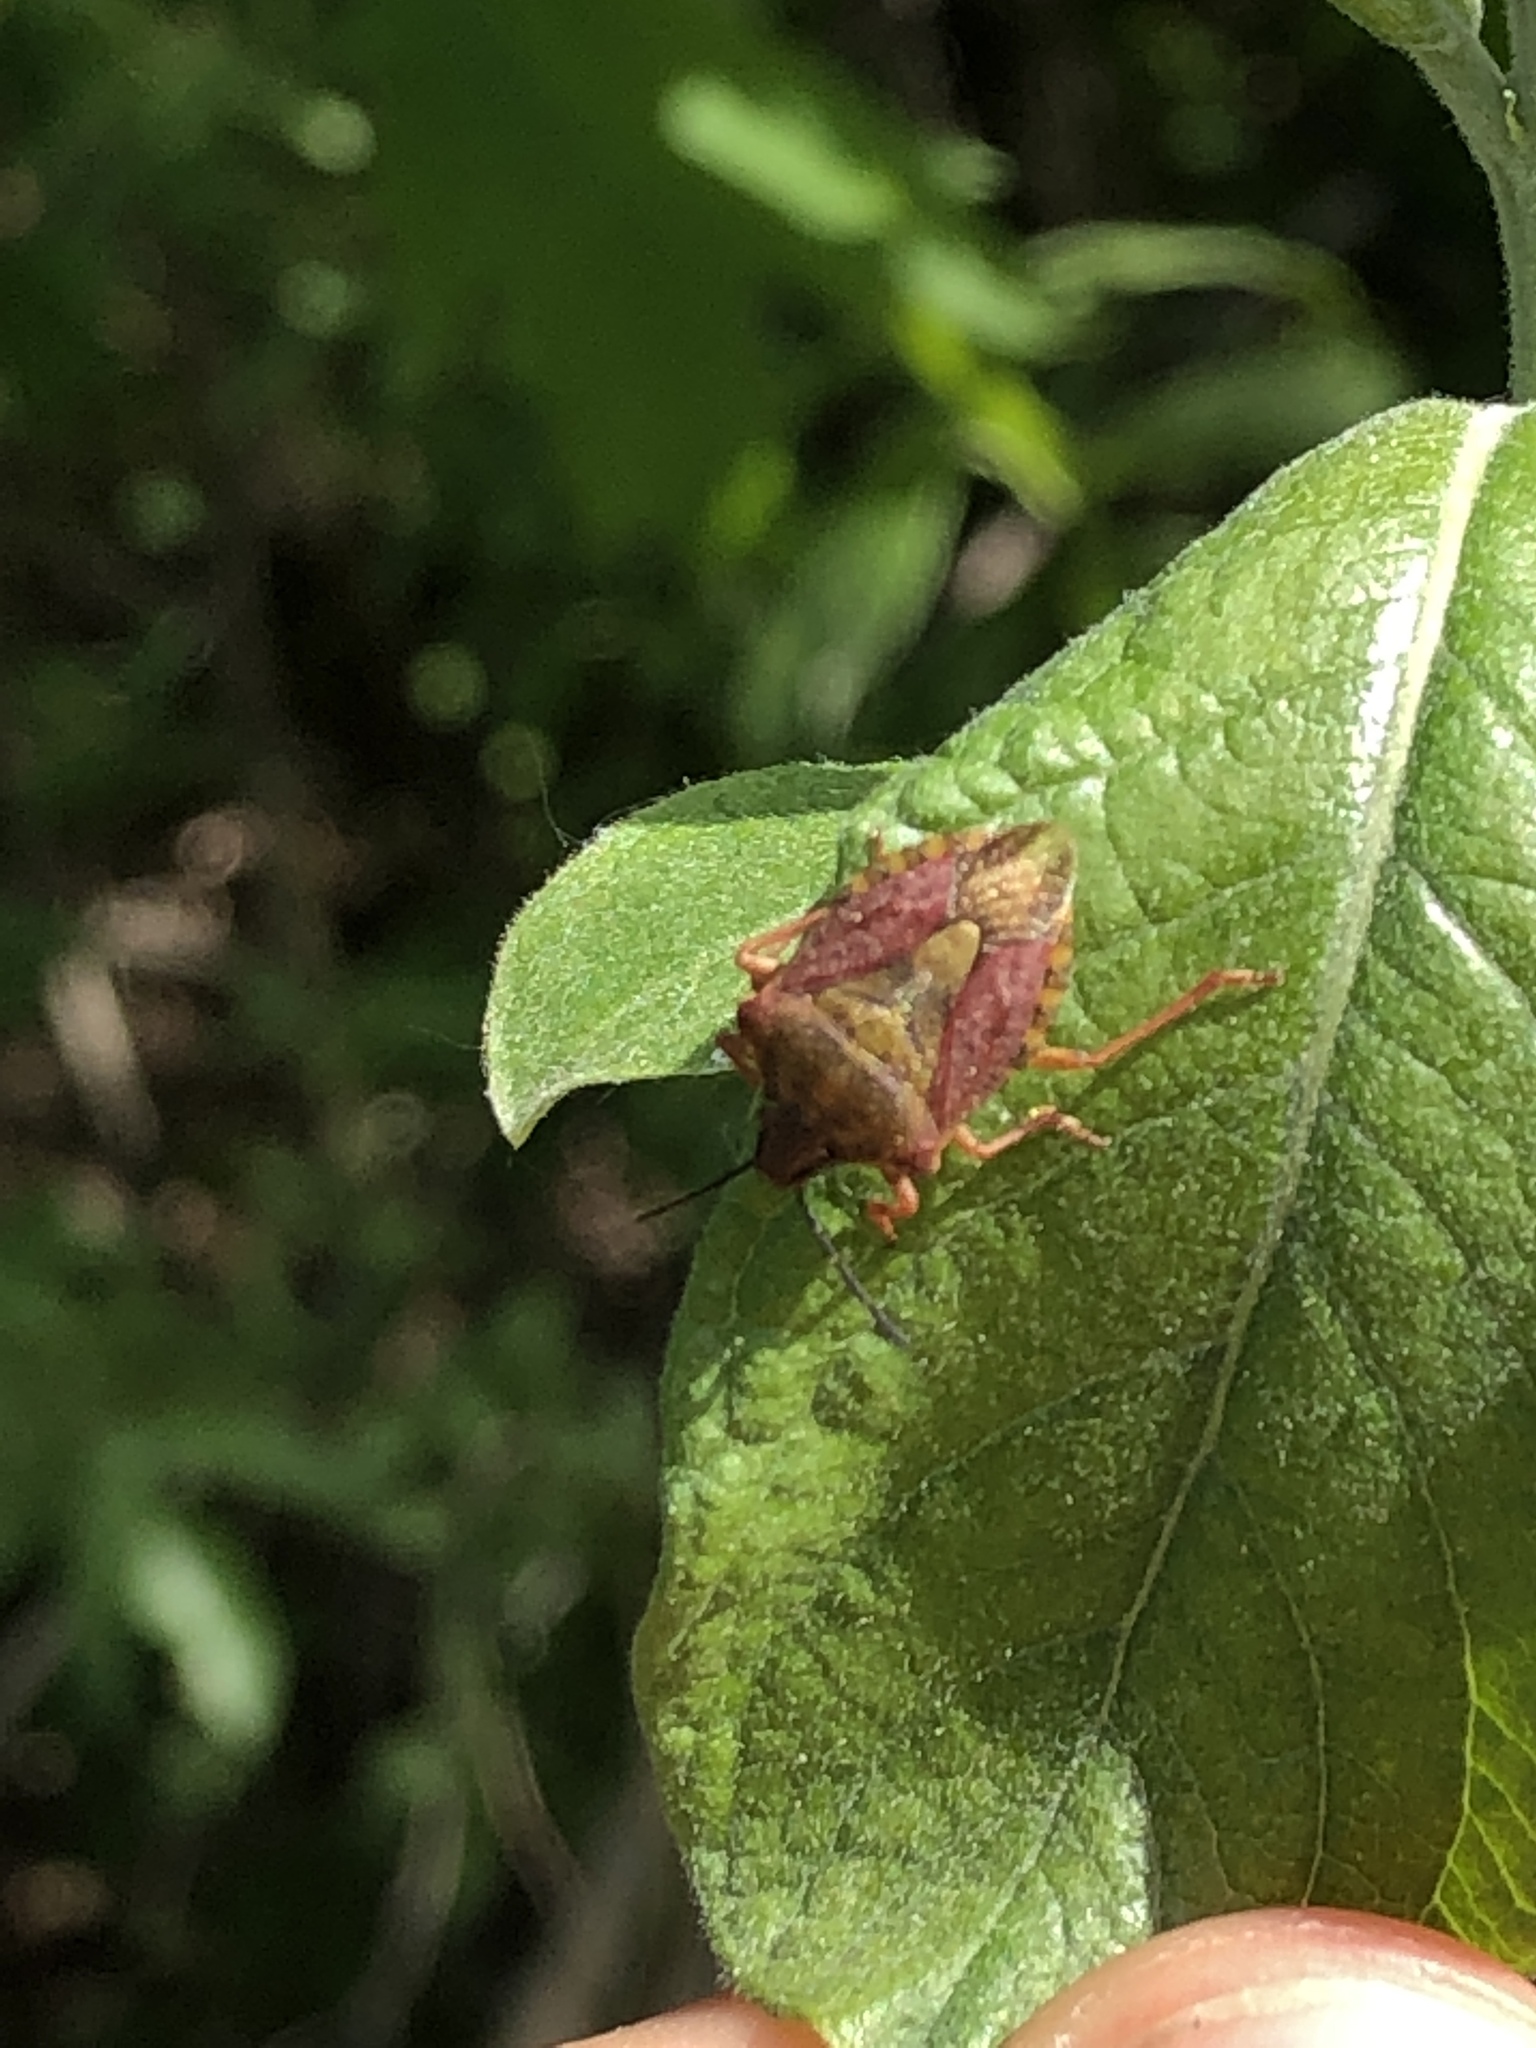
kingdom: Animalia
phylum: Arthropoda
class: Insecta
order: Hemiptera
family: Pentatomidae
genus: Carpocoris
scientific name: Carpocoris purpureipennis
